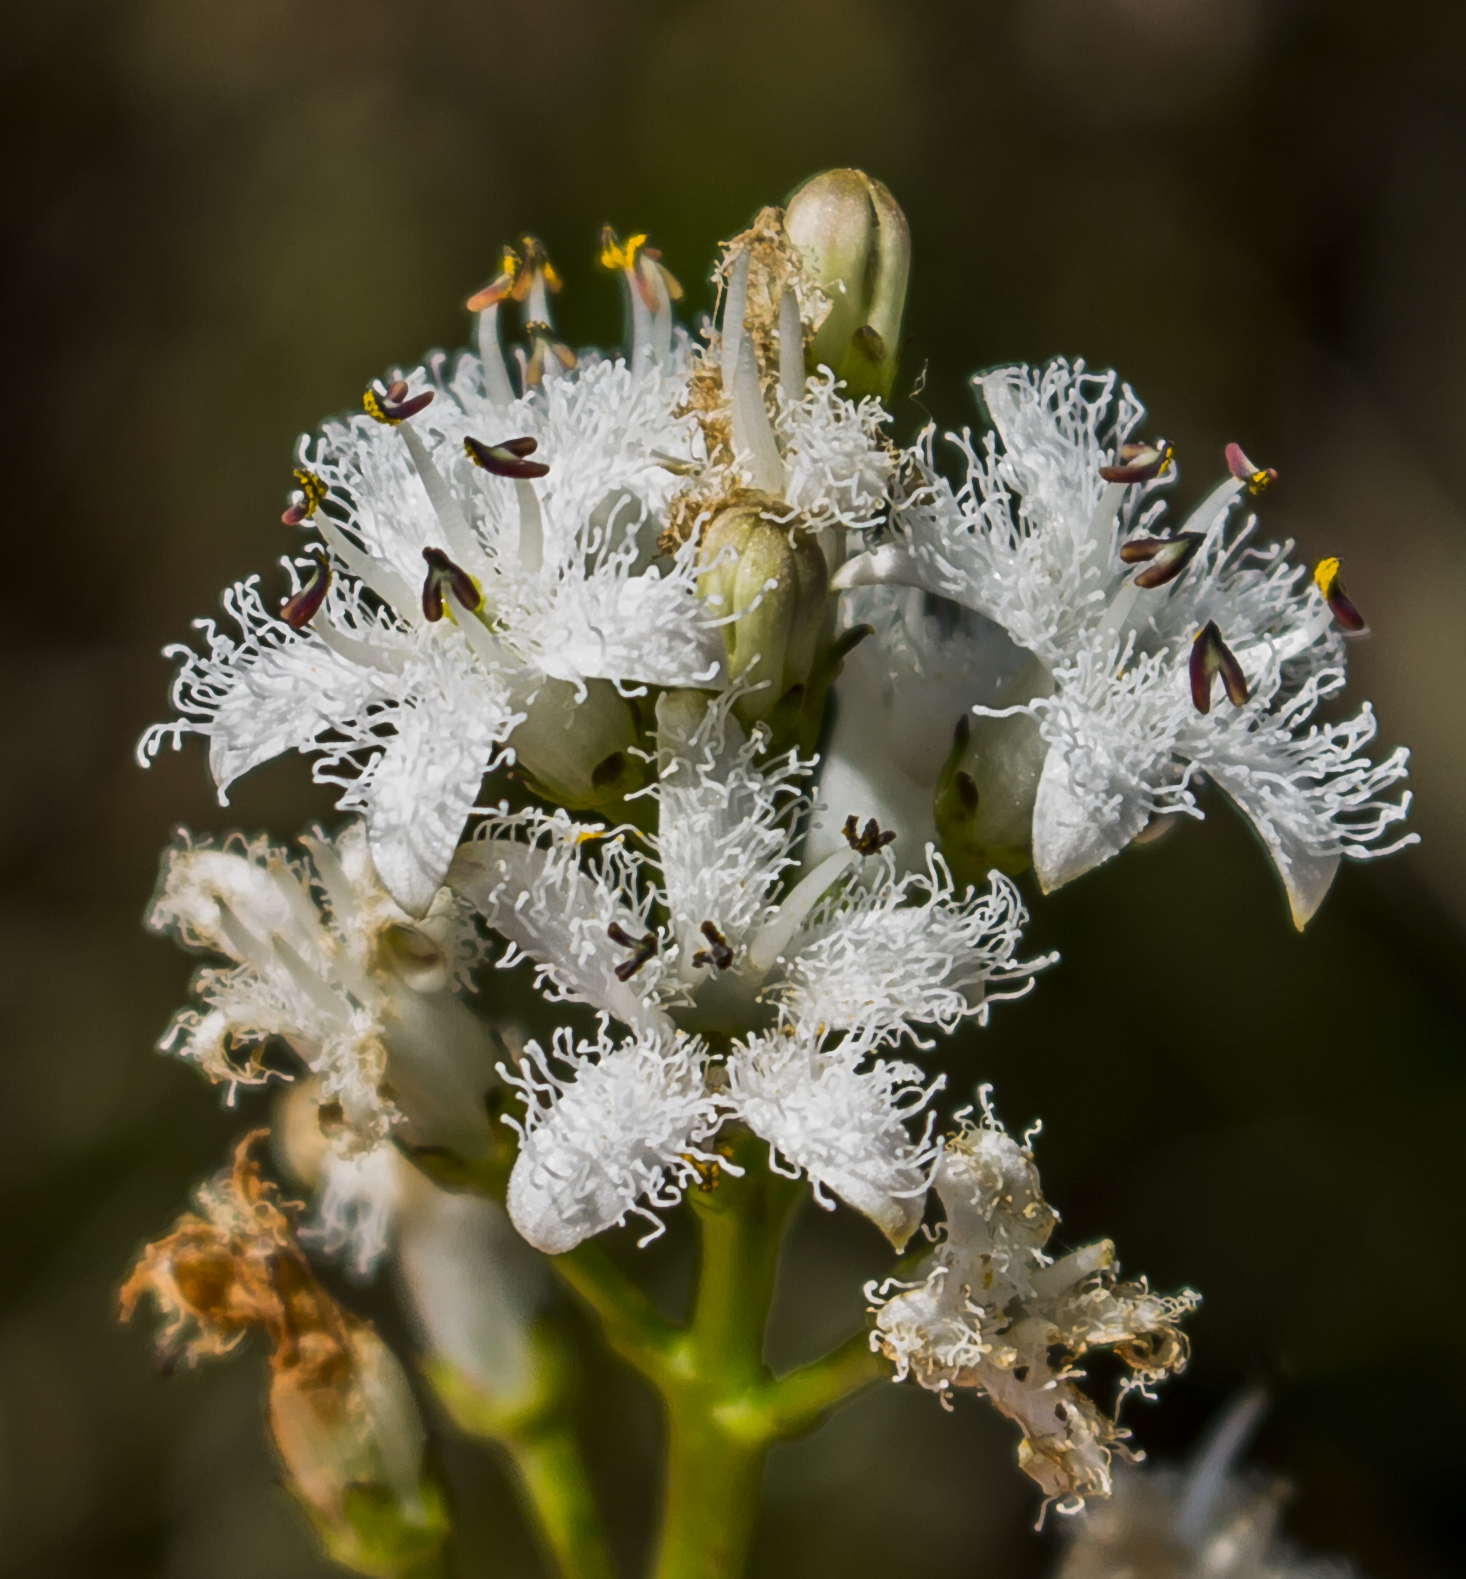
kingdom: Plantae
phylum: Tracheophyta
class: Magnoliopsida
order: Asterales
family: Menyanthaceae
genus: Menyanthes
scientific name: Menyanthes trifoliata
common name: Bogbean
